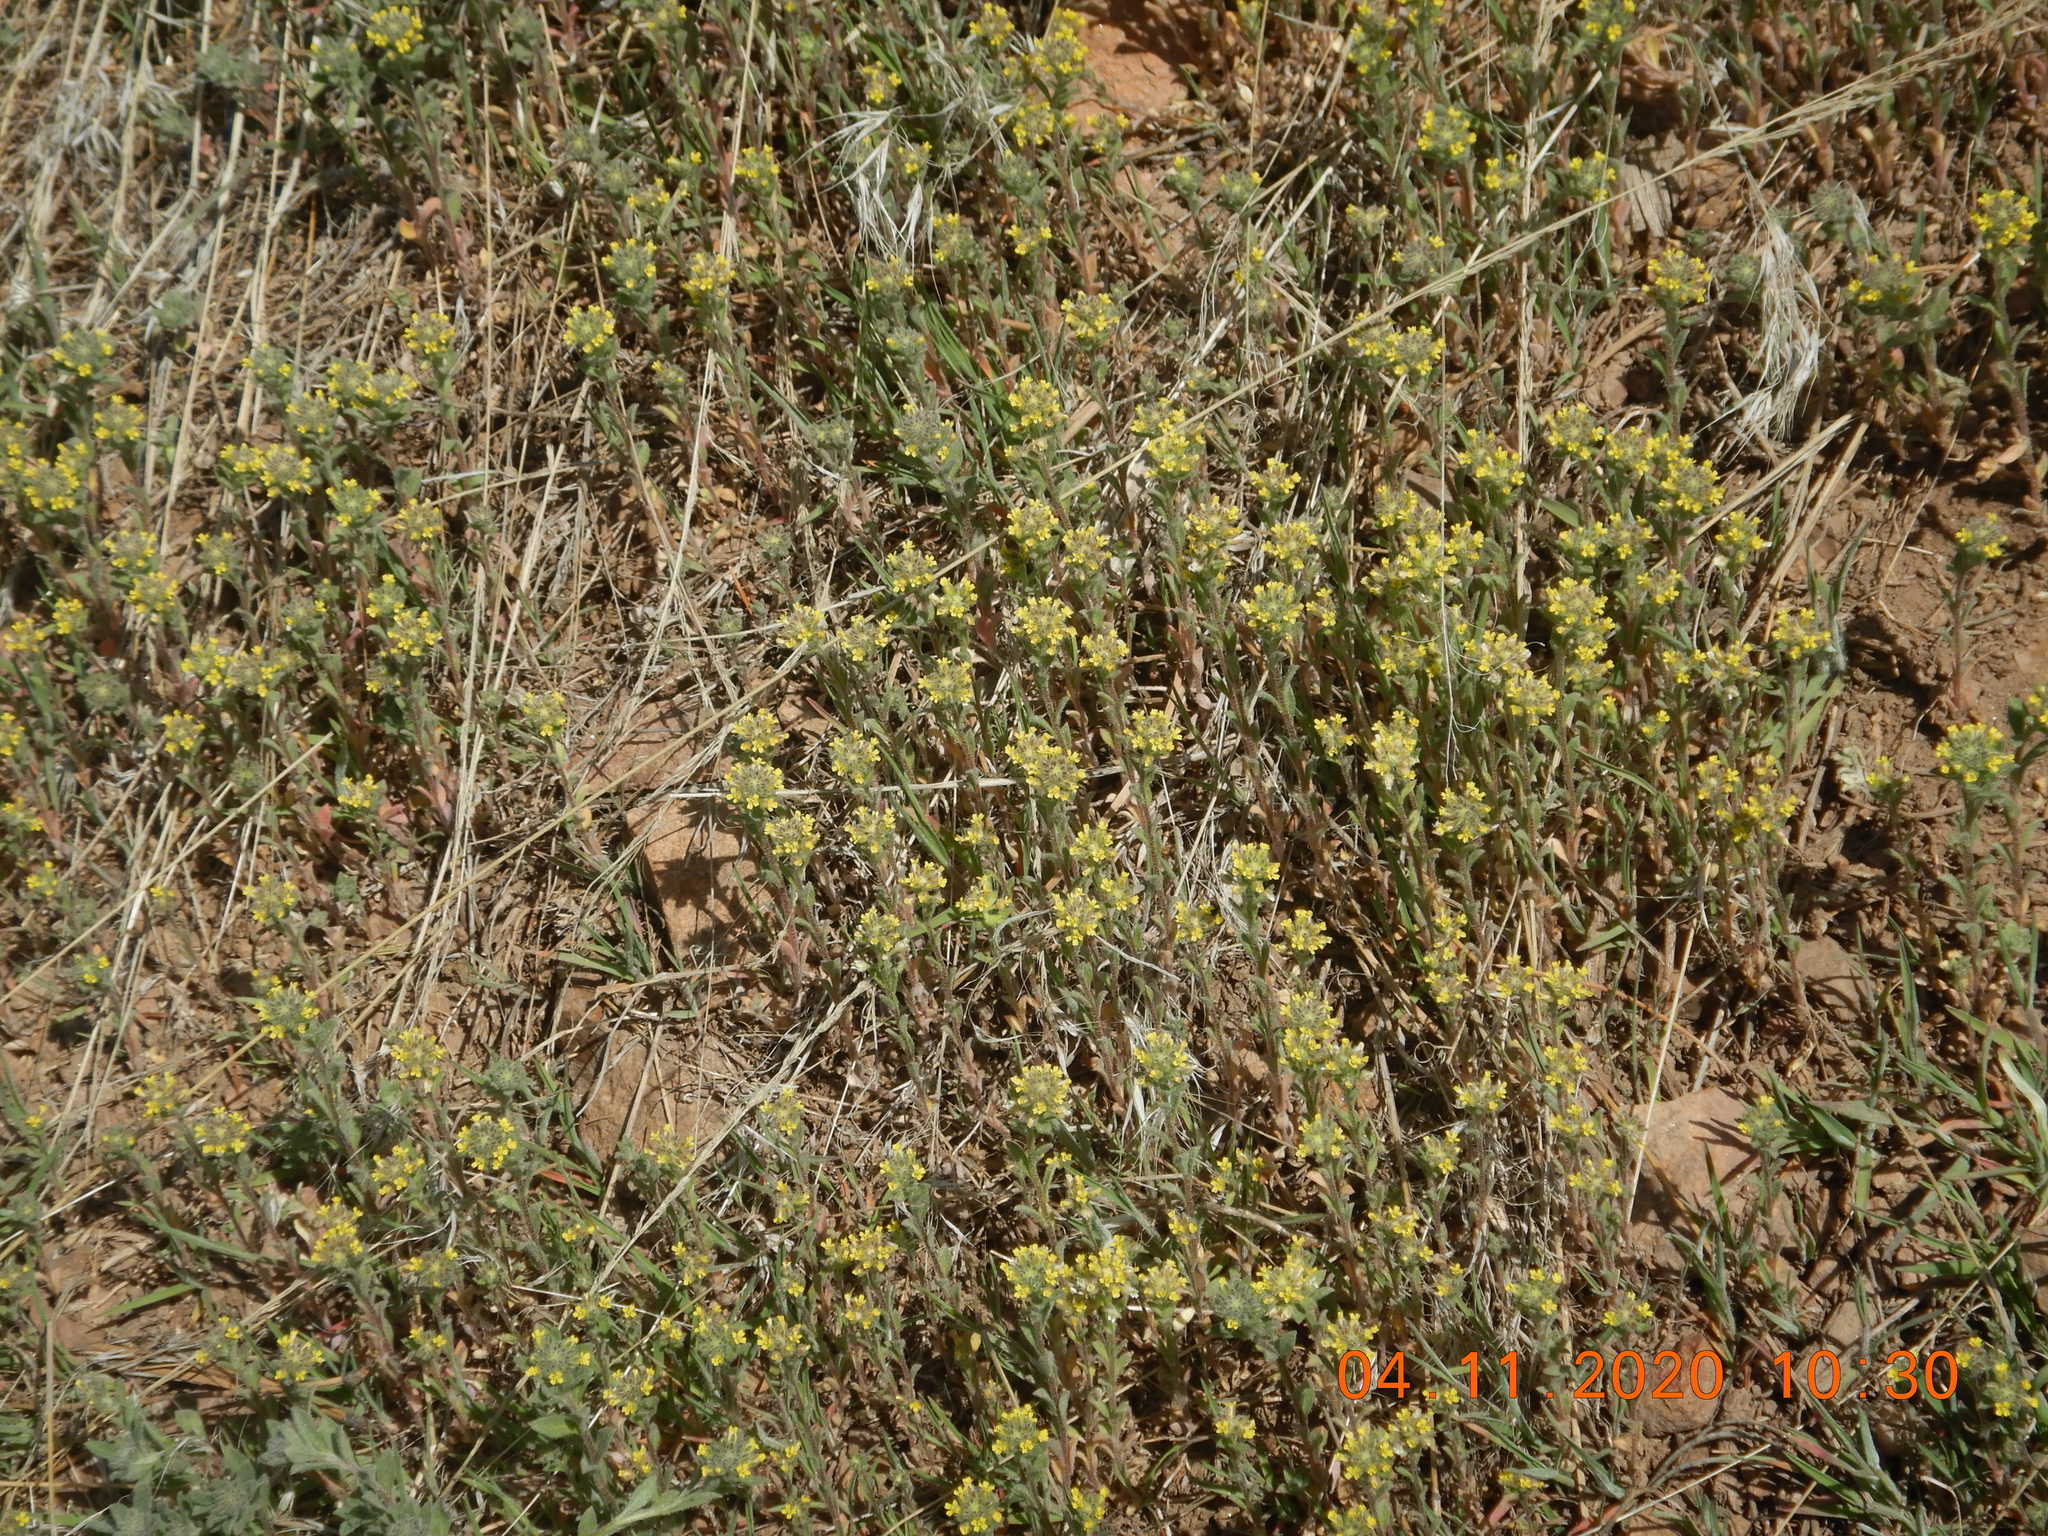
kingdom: Plantae
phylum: Tracheophyta
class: Magnoliopsida
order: Brassicales
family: Brassicaceae
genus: Alyssum
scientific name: Alyssum turkestanicum
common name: Desert alyssum
